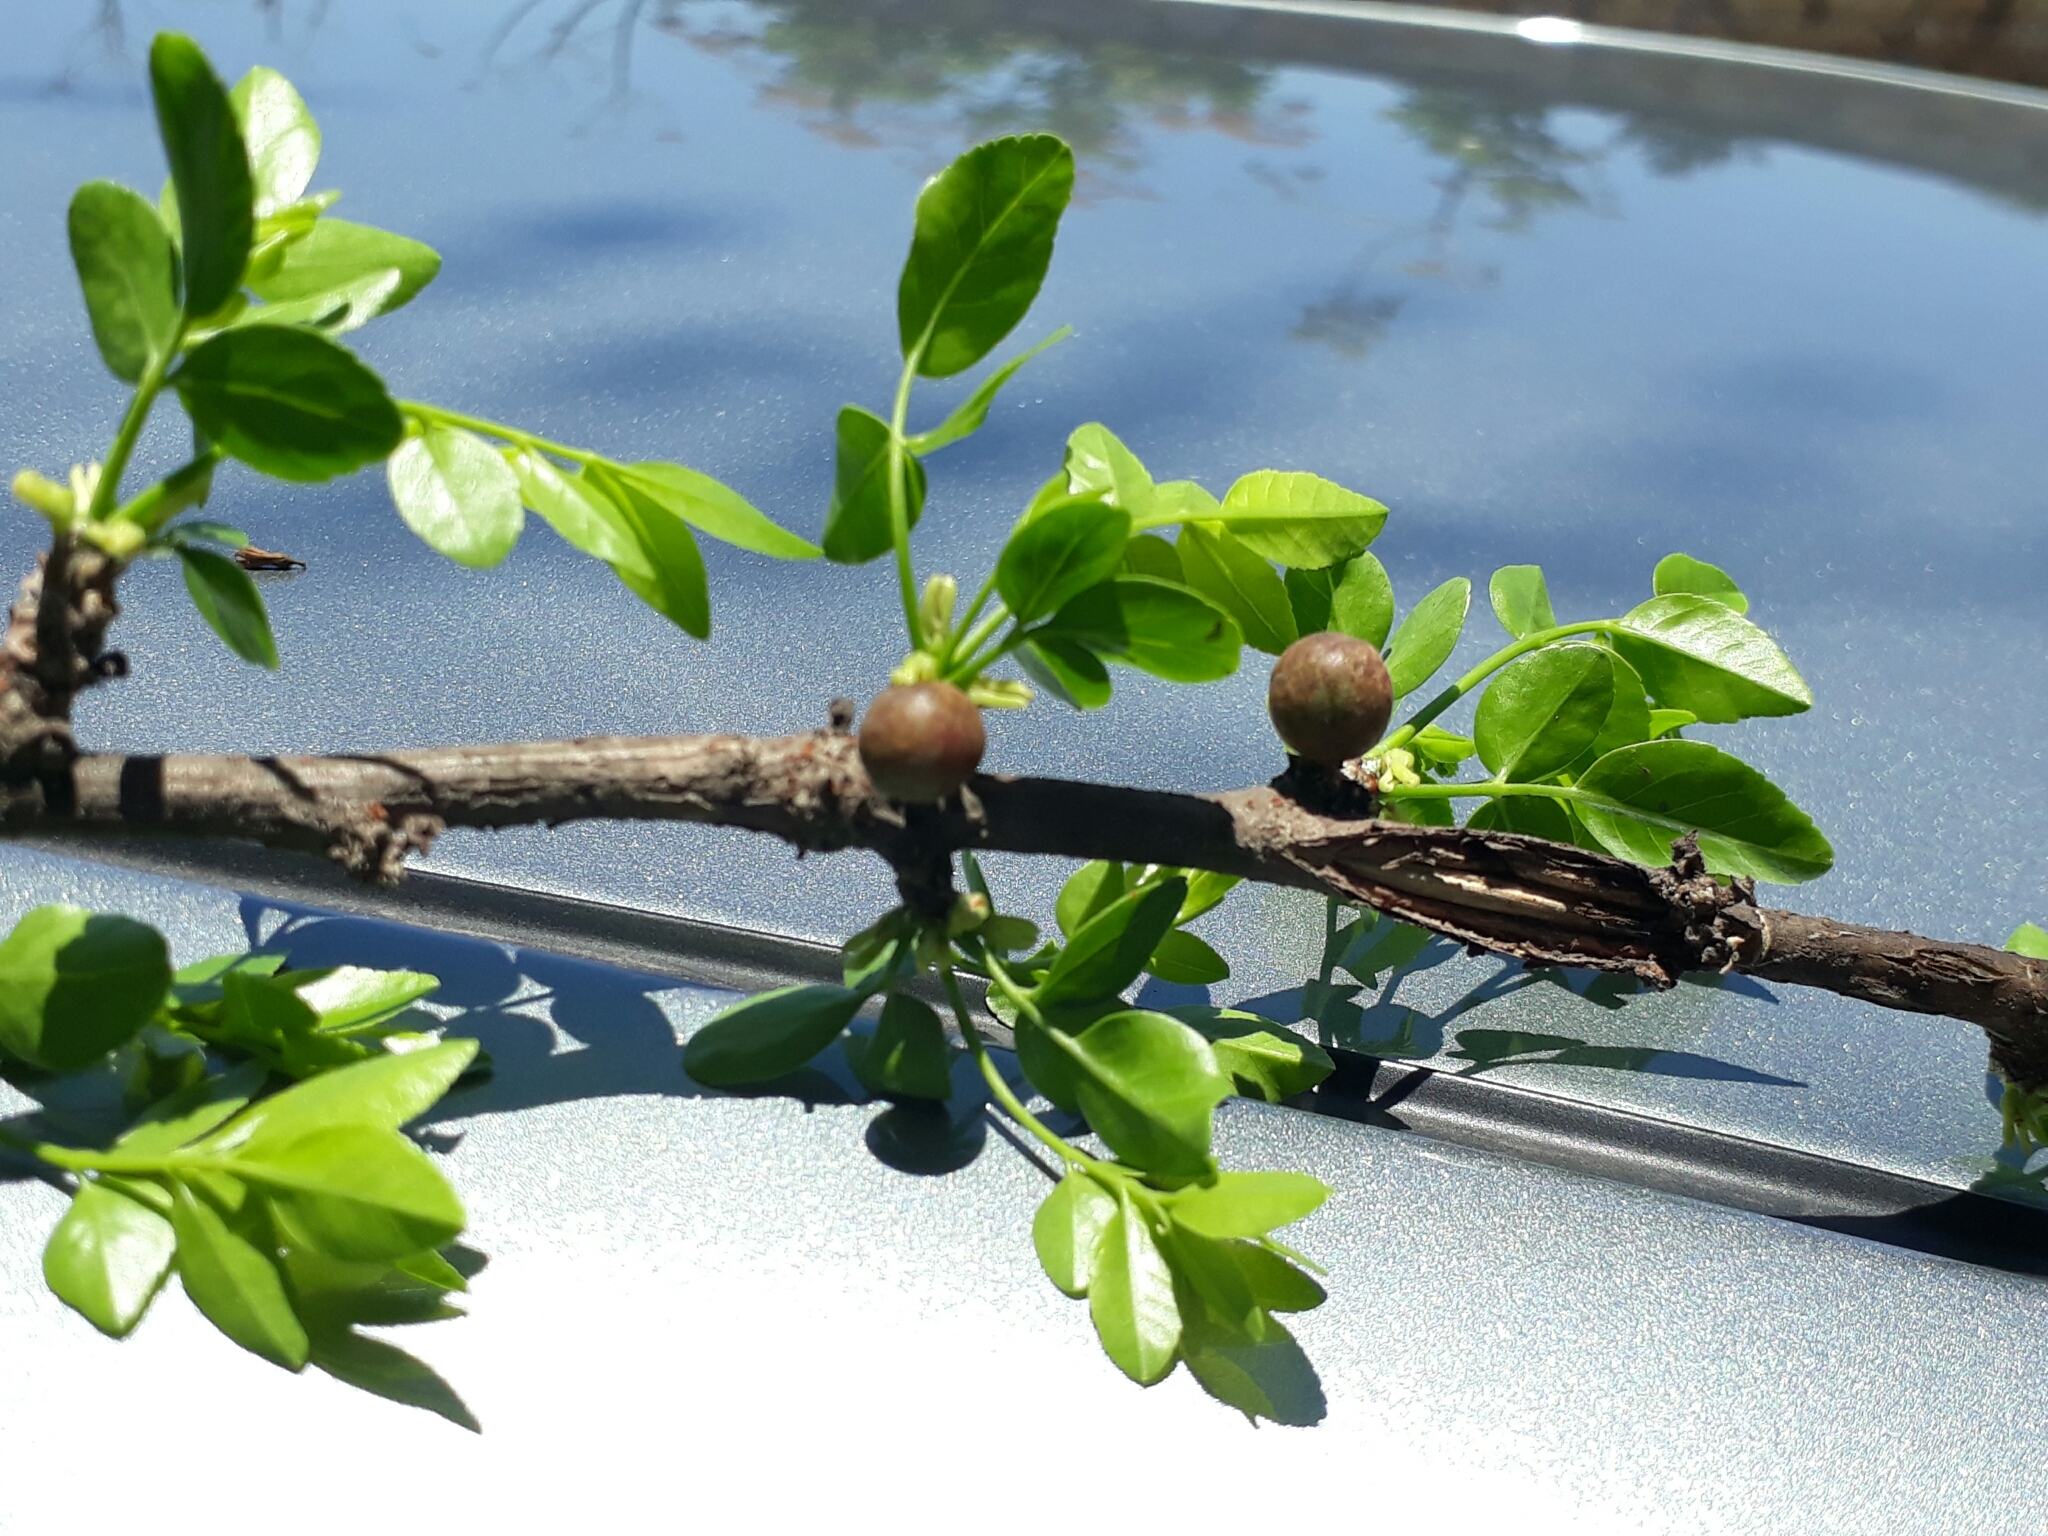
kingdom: Plantae
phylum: Tracheophyta
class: Magnoliopsida
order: Sapindales
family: Burseraceae
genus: Bursera
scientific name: Bursera fagaroides
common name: Elephant tree
